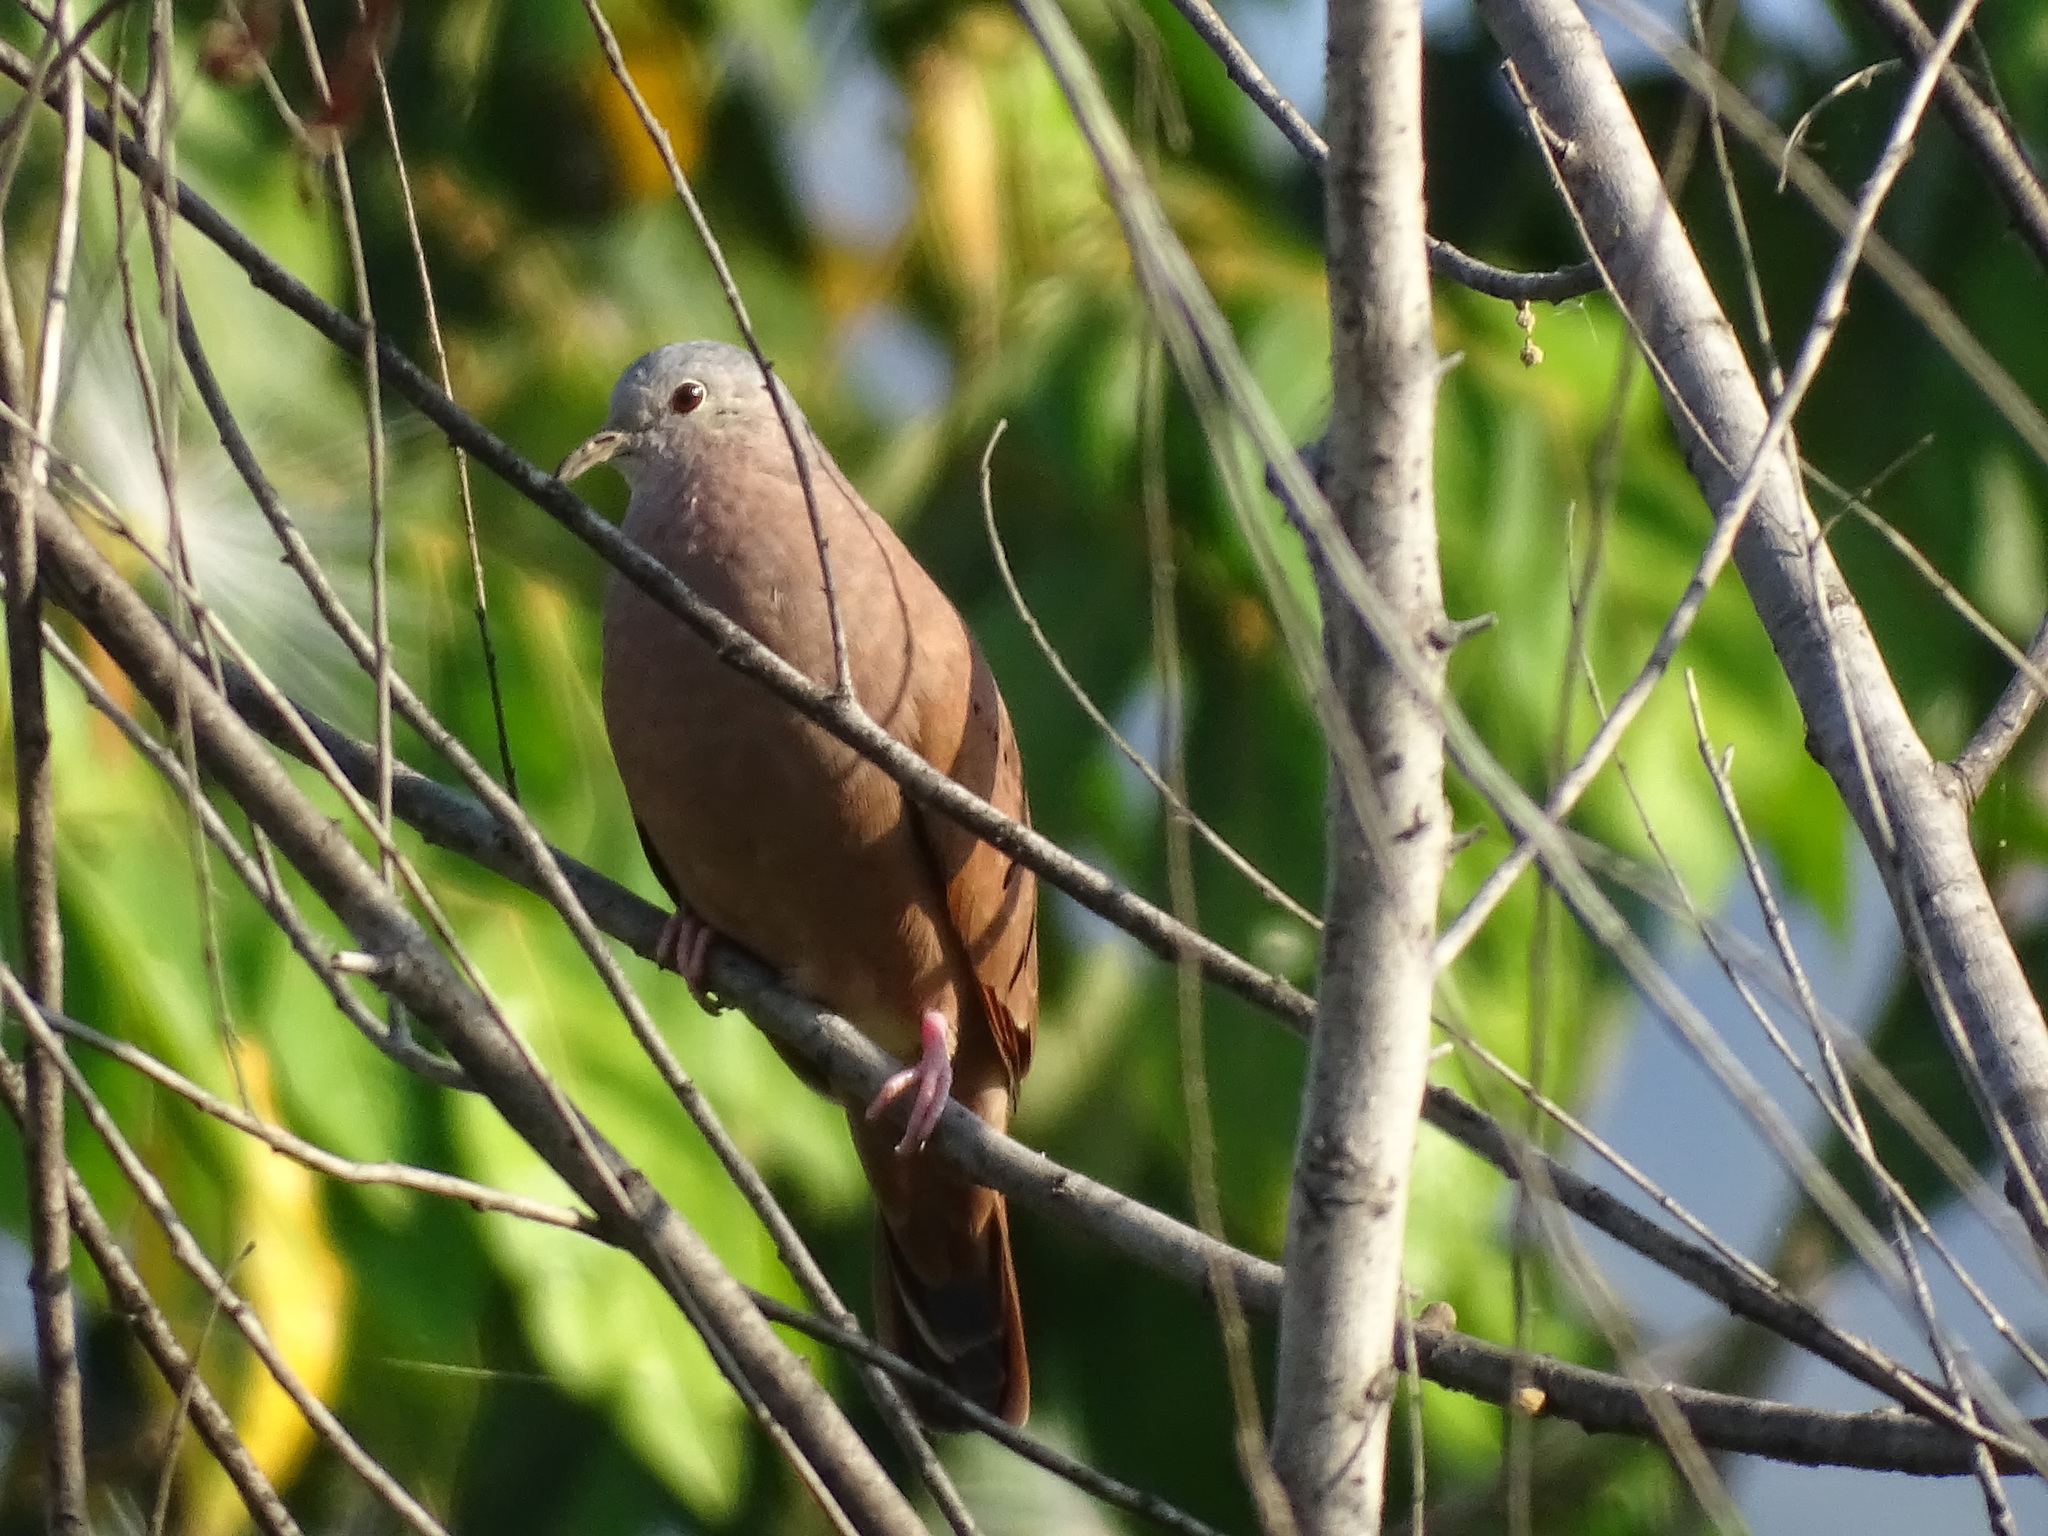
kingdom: Animalia
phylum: Chordata
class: Aves
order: Columbiformes
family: Columbidae
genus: Columbina
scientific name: Columbina talpacoti
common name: Ruddy ground dove
